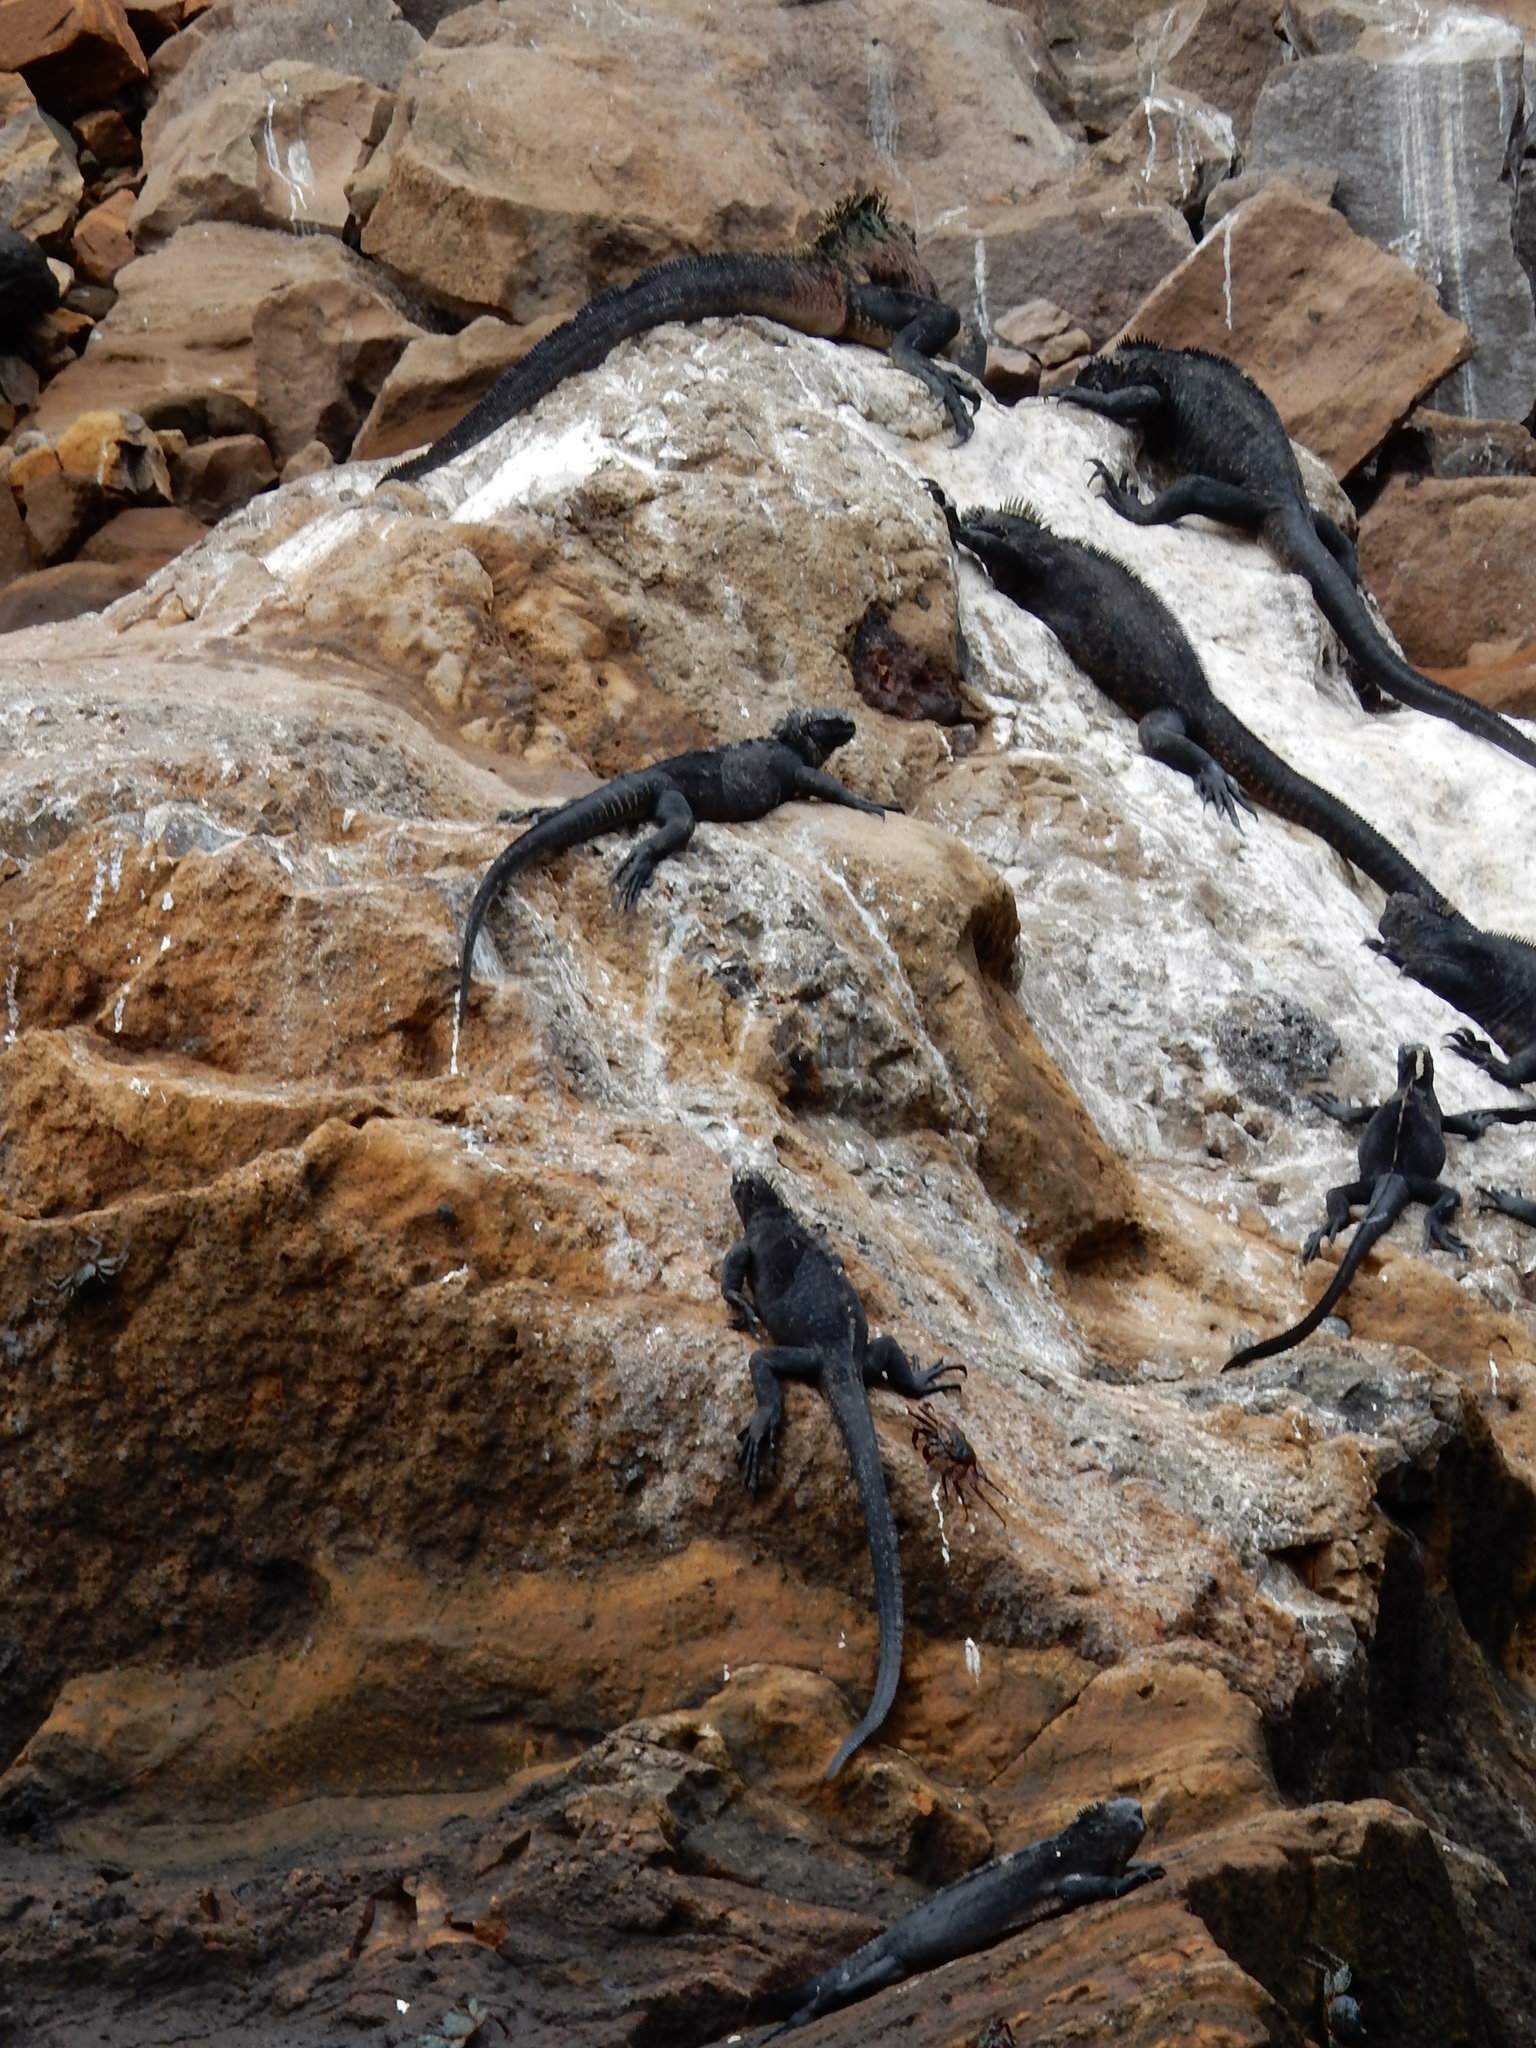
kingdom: Animalia
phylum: Chordata
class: Squamata
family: Iguanidae
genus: Amblyrhynchus
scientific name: Amblyrhynchus cristatus
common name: Marine iguana
